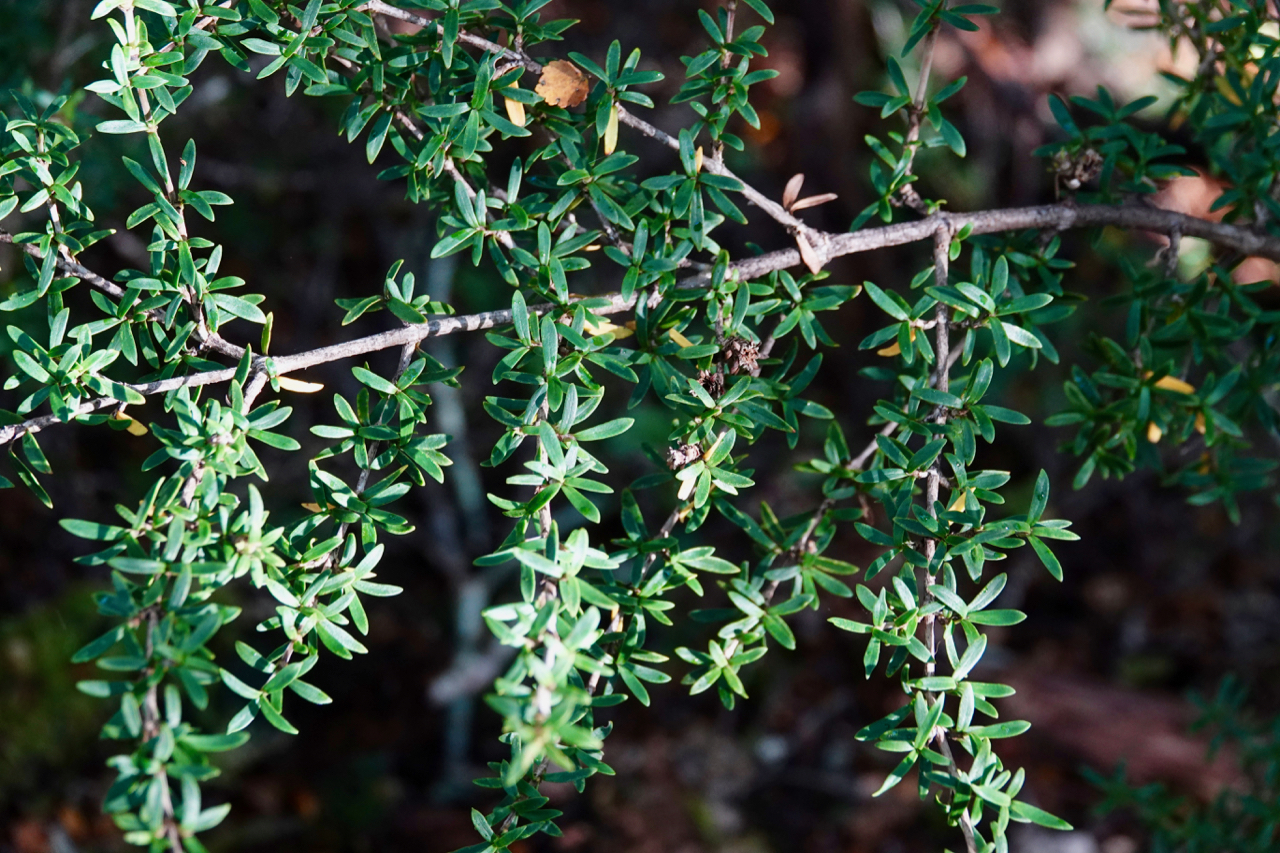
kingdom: Plantae
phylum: Tracheophyta
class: Magnoliopsida
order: Gentianales
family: Rubiaceae
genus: Coprosma
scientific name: Coprosma microcarpa
